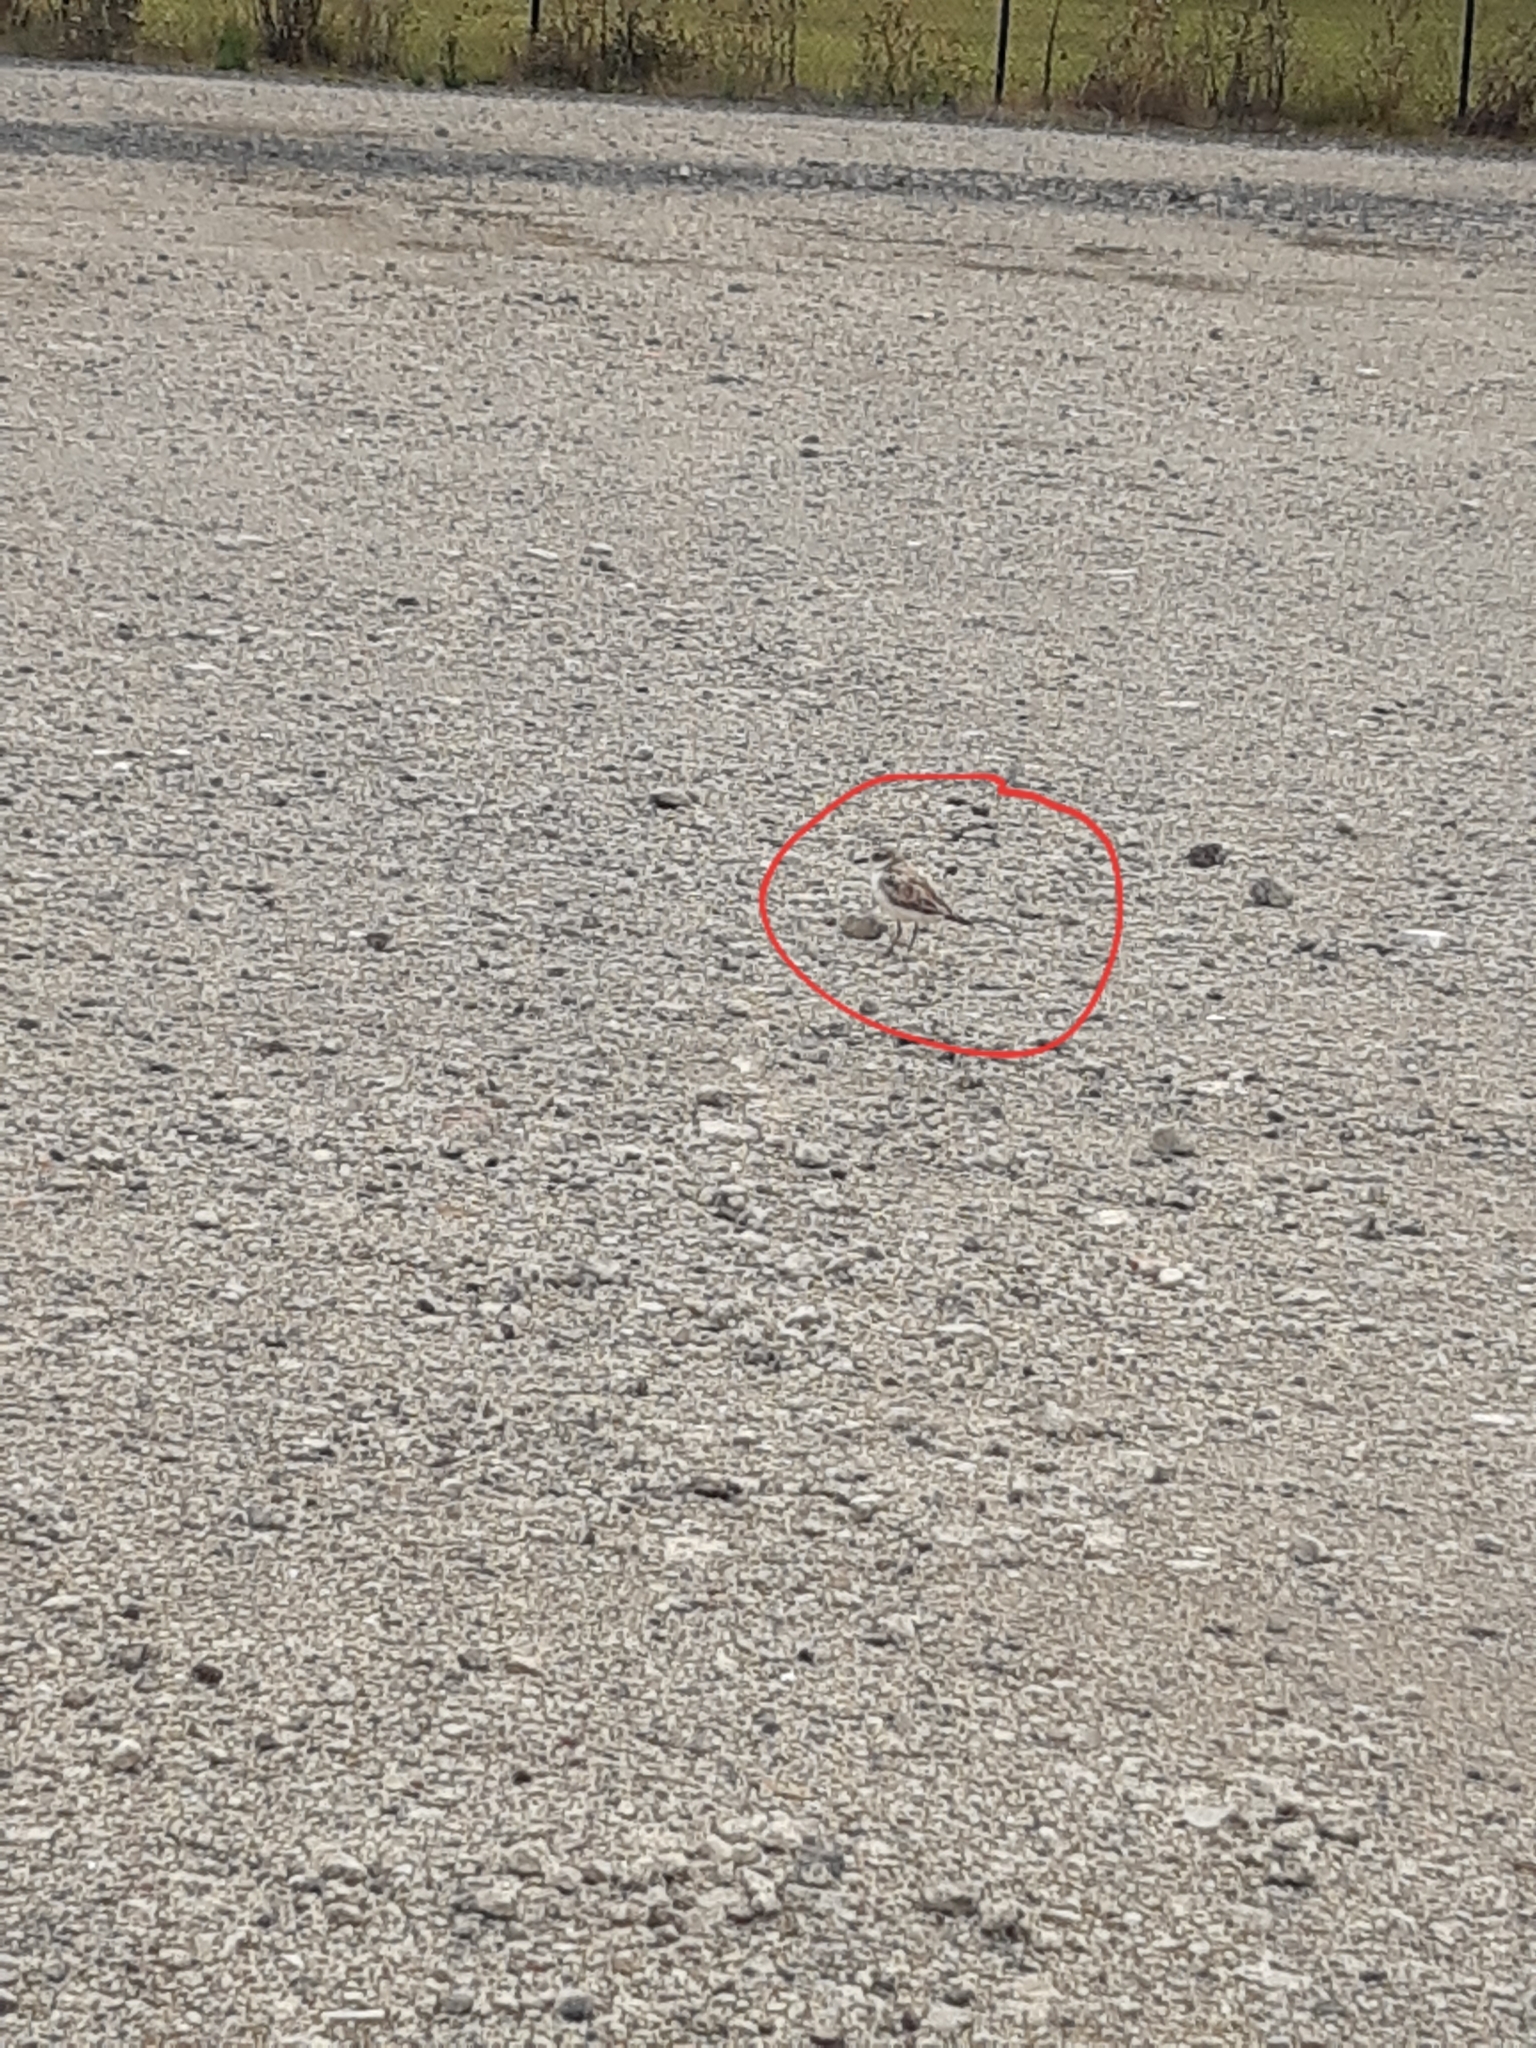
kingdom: Animalia
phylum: Chordata
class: Aves
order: Charadriiformes
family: Charadriidae
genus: Anarhynchus
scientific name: Anarhynchus
